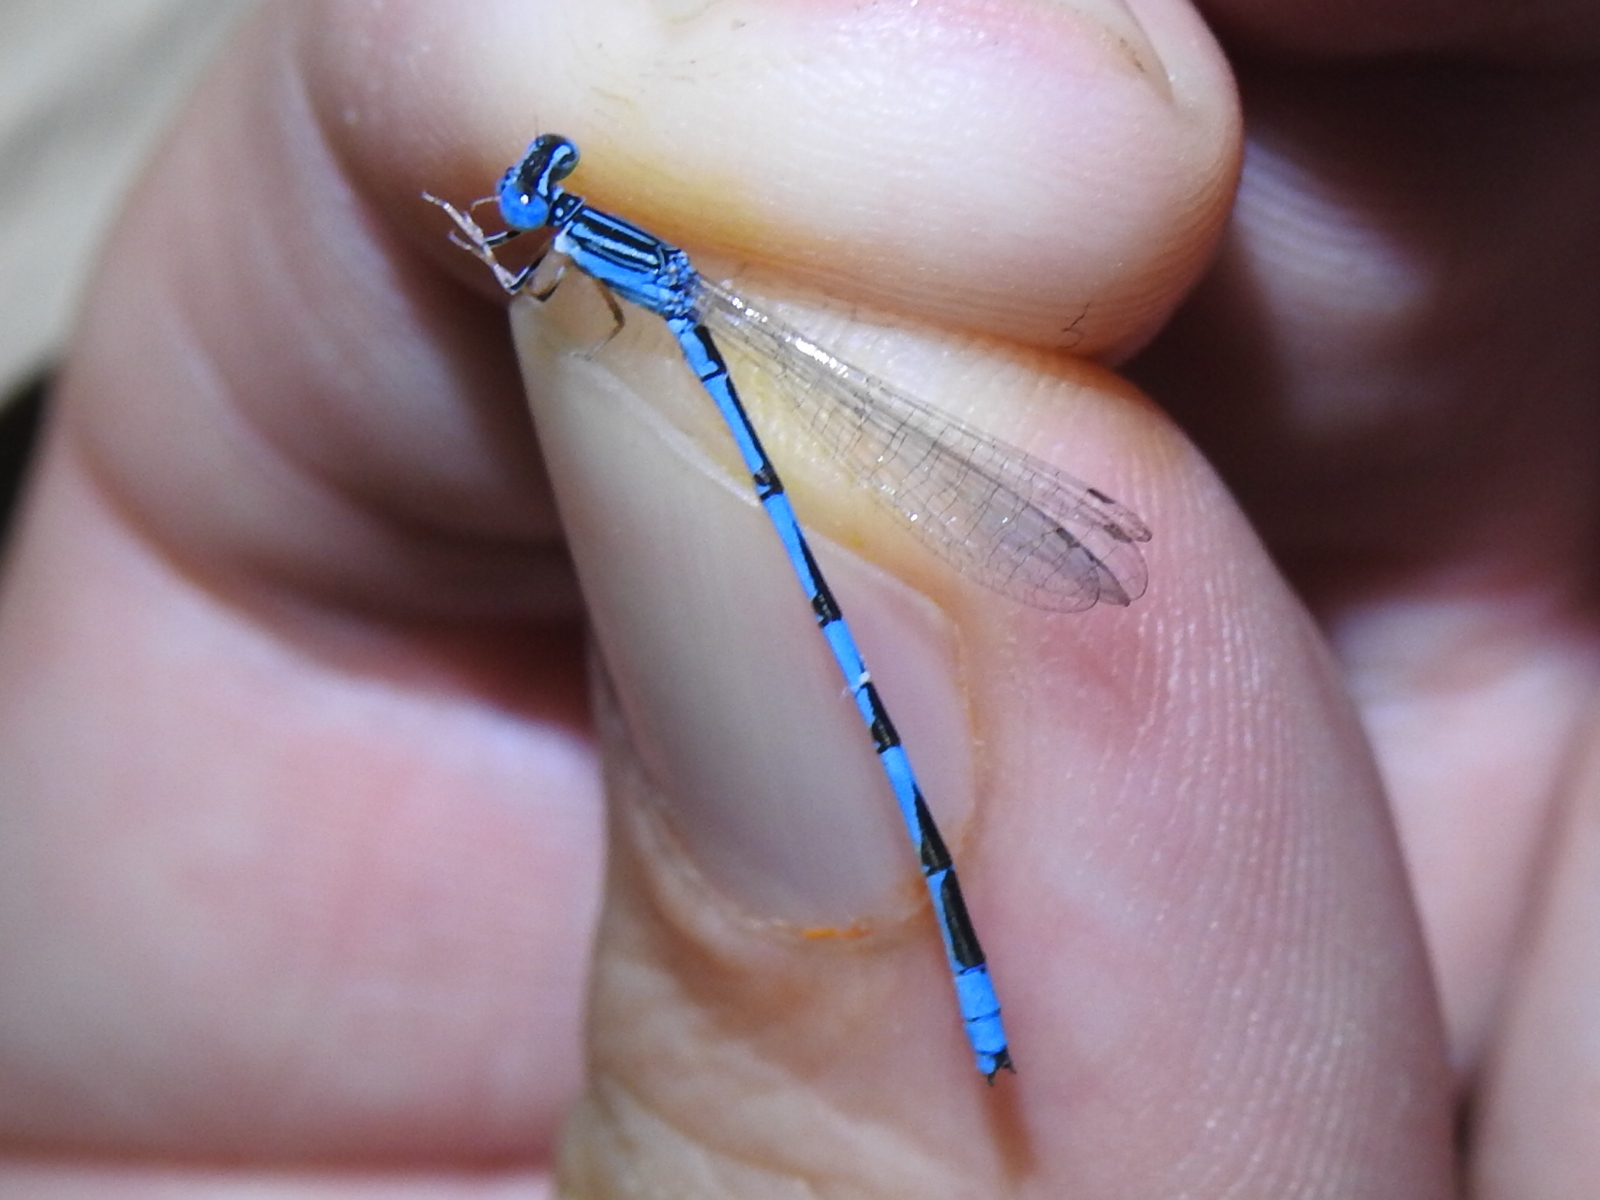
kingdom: Animalia
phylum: Arthropoda
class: Insecta
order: Odonata
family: Coenagrionidae
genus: Enallagma
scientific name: Enallagma basidens
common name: Double-striped bluet
